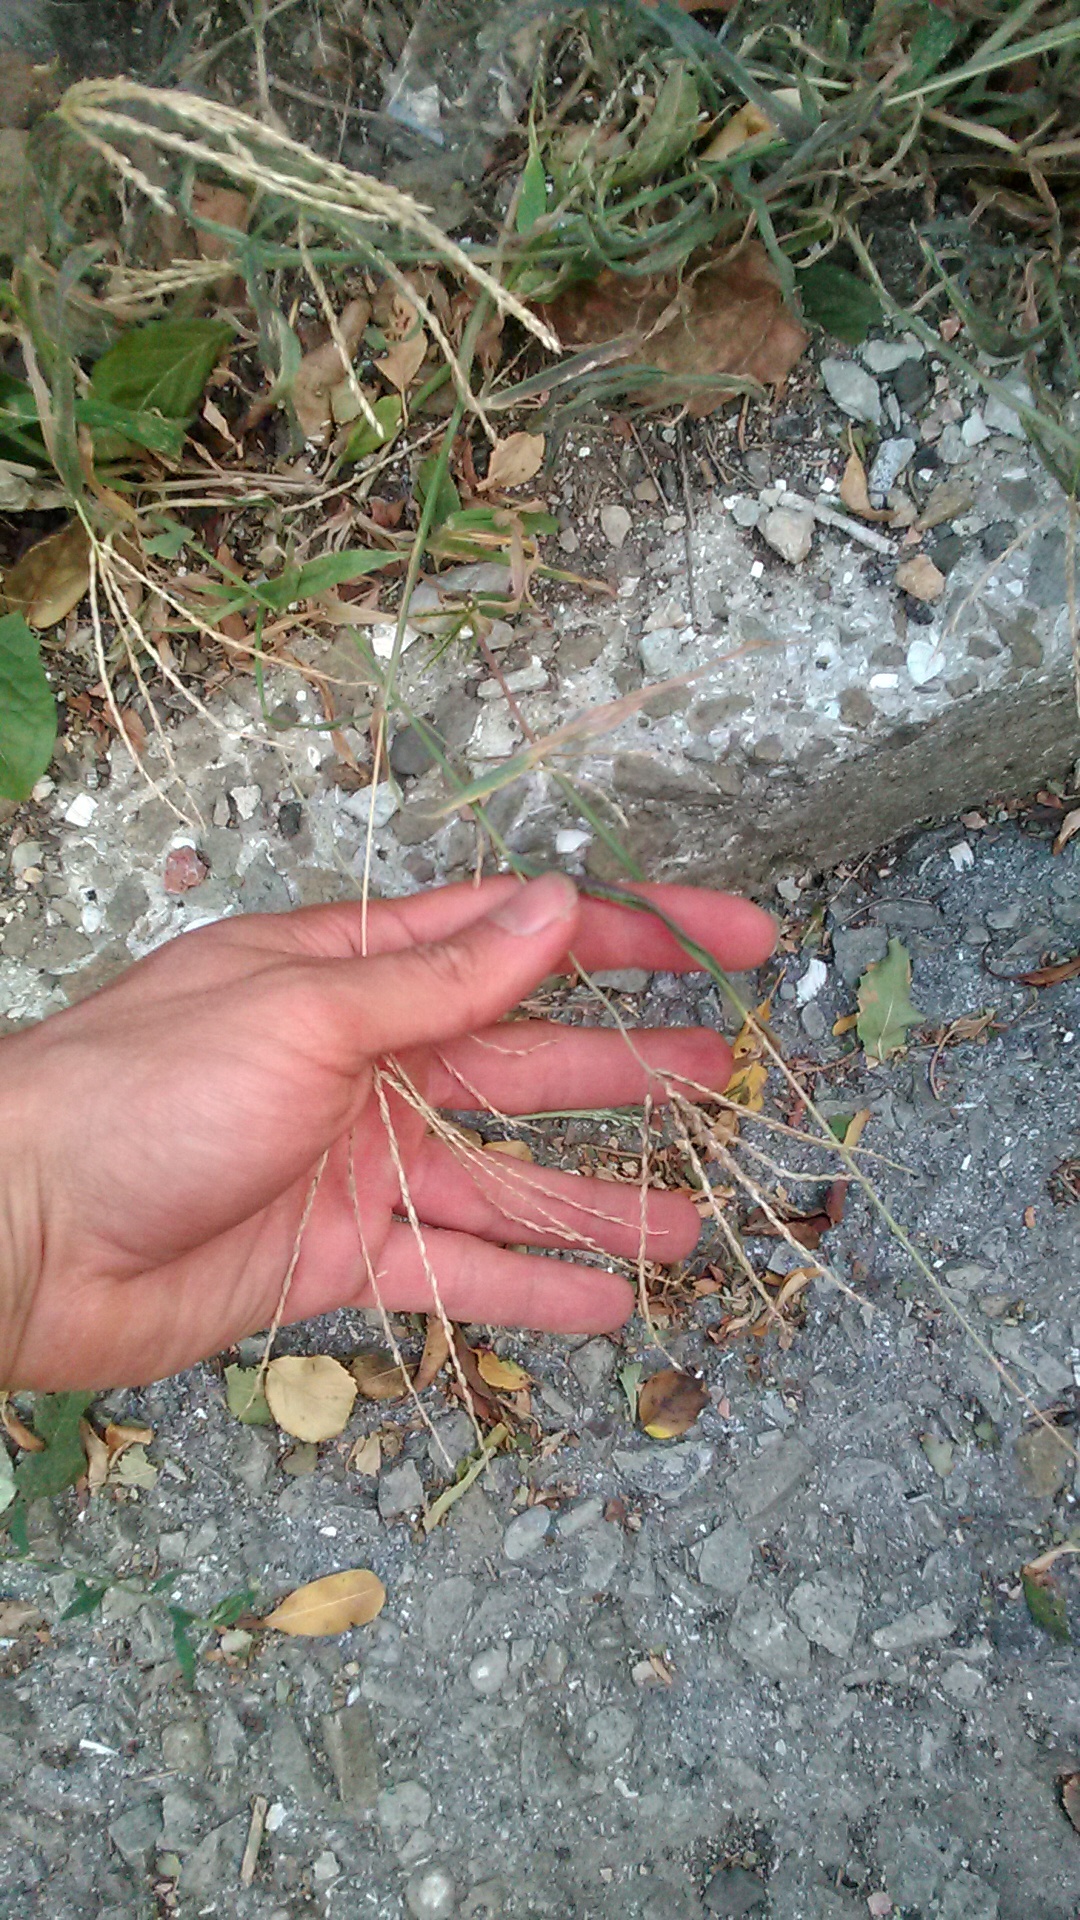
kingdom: Plantae
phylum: Tracheophyta
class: Liliopsida
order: Poales
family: Poaceae
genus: Digitaria
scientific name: Digitaria sanguinalis
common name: Hairy crabgrass
